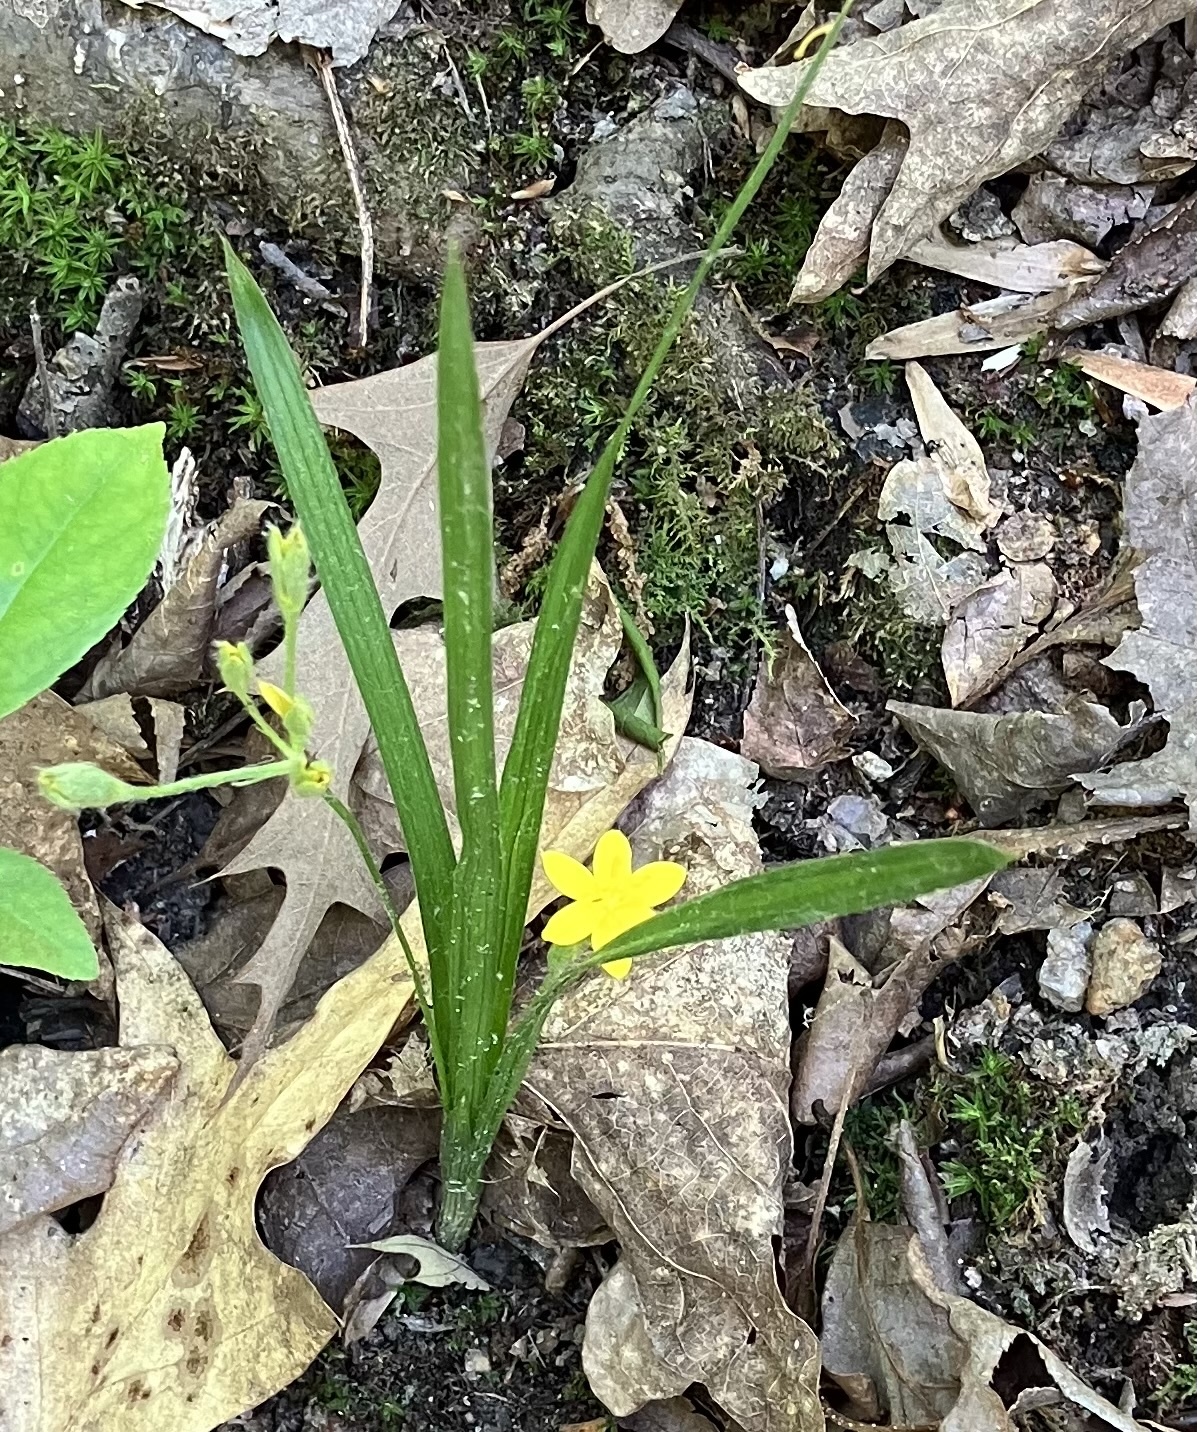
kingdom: Plantae
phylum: Tracheophyta
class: Liliopsida
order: Asparagales
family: Hypoxidaceae
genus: Hypoxis
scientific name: Hypoxis hirsuta
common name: Common goldstar
